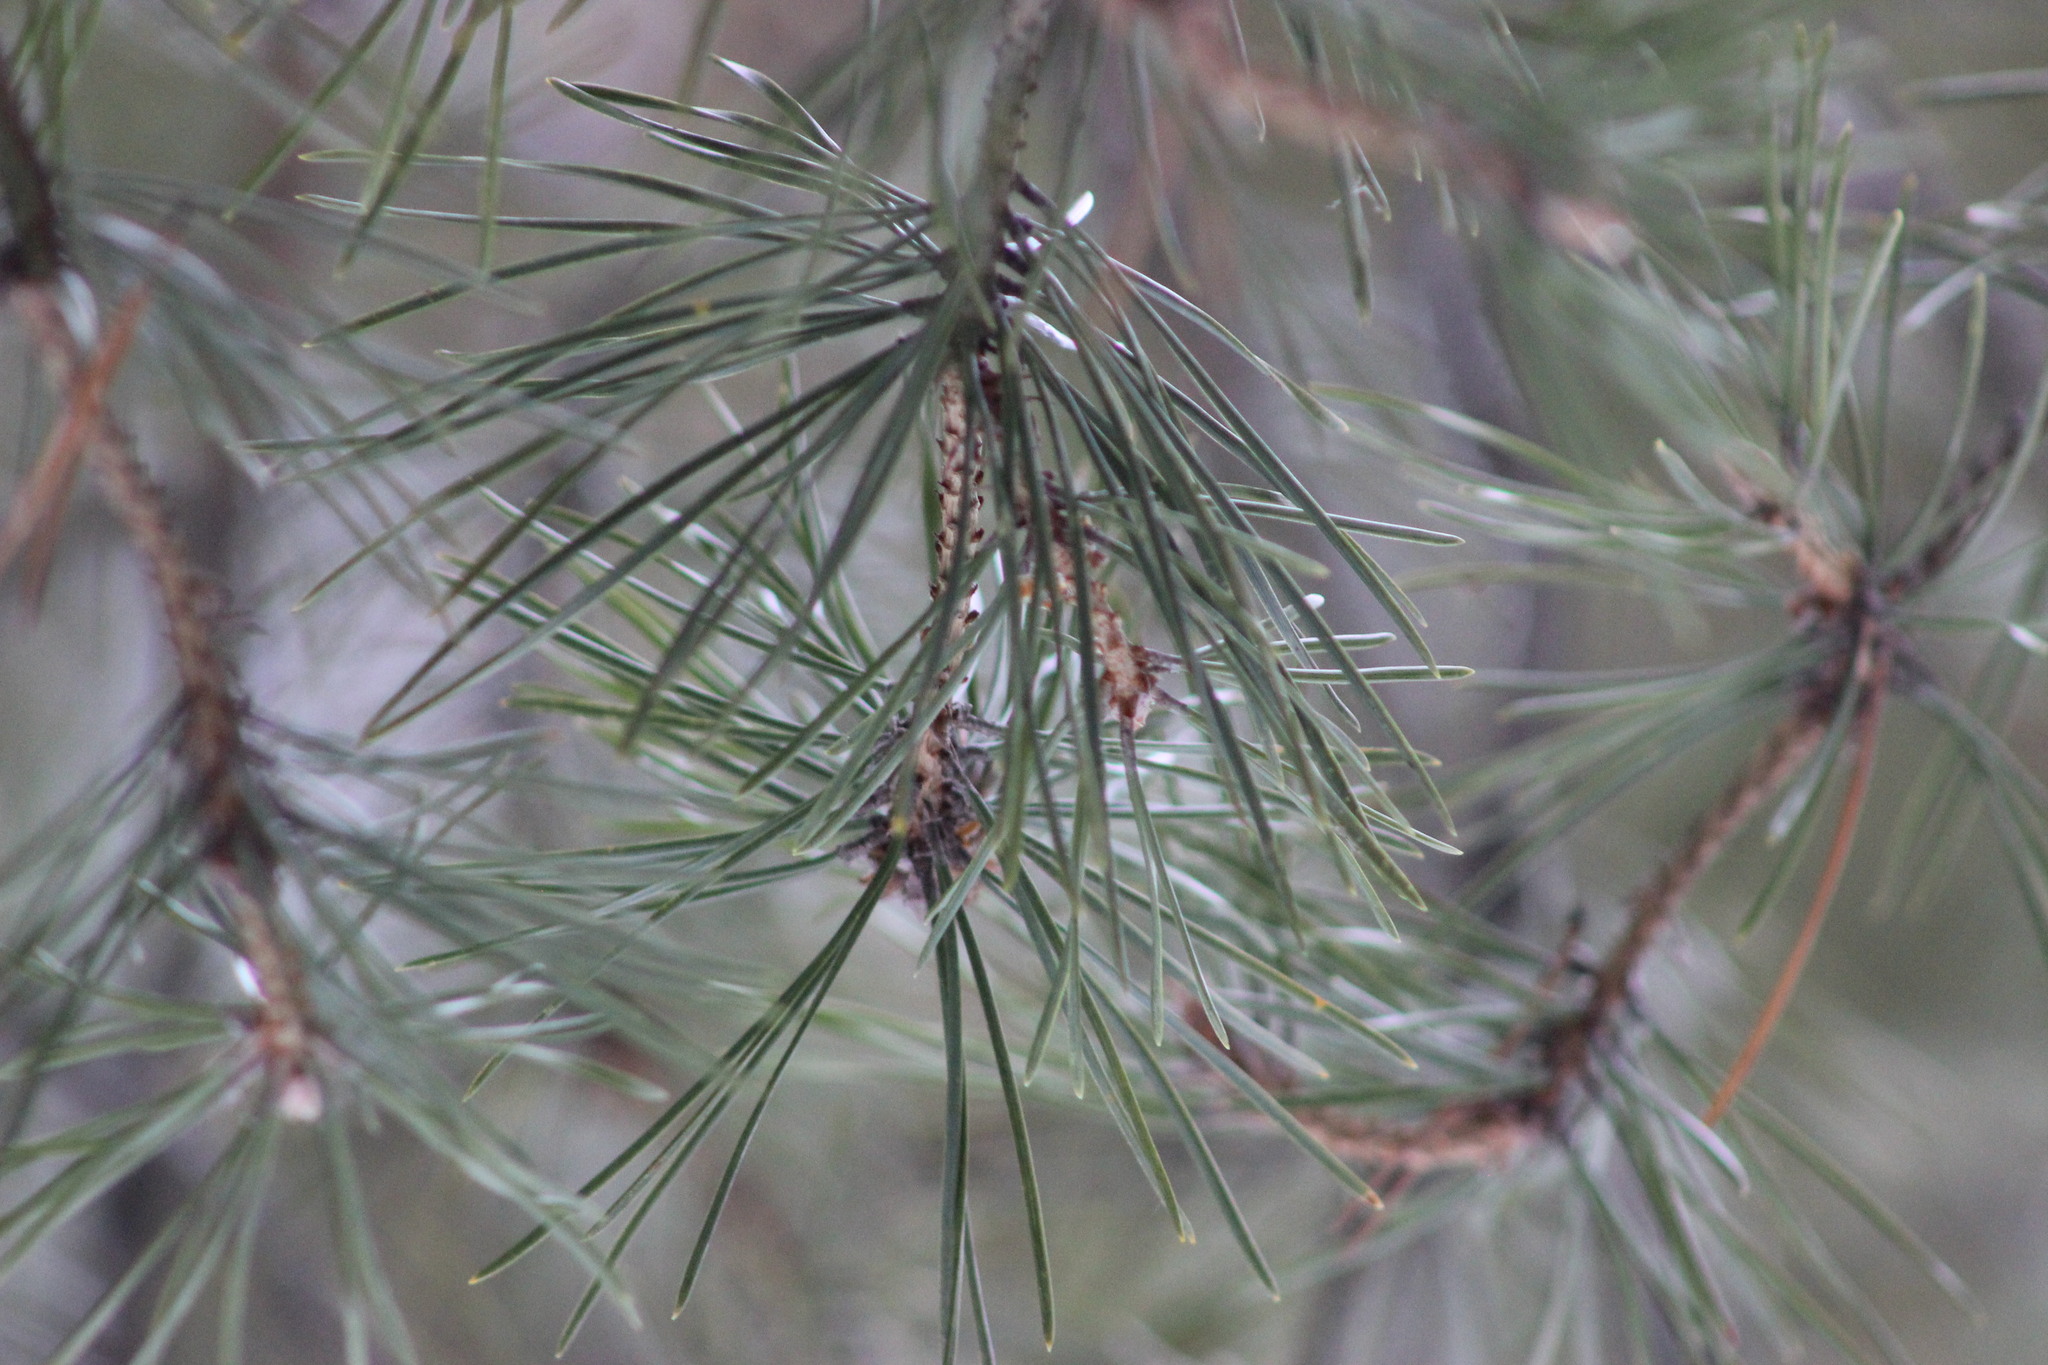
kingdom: Plantae
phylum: Tracheophyta
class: Pinopsida
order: Pinales
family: Pinaceae
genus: Pinus
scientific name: Pinus sibirica
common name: Siberian pine
